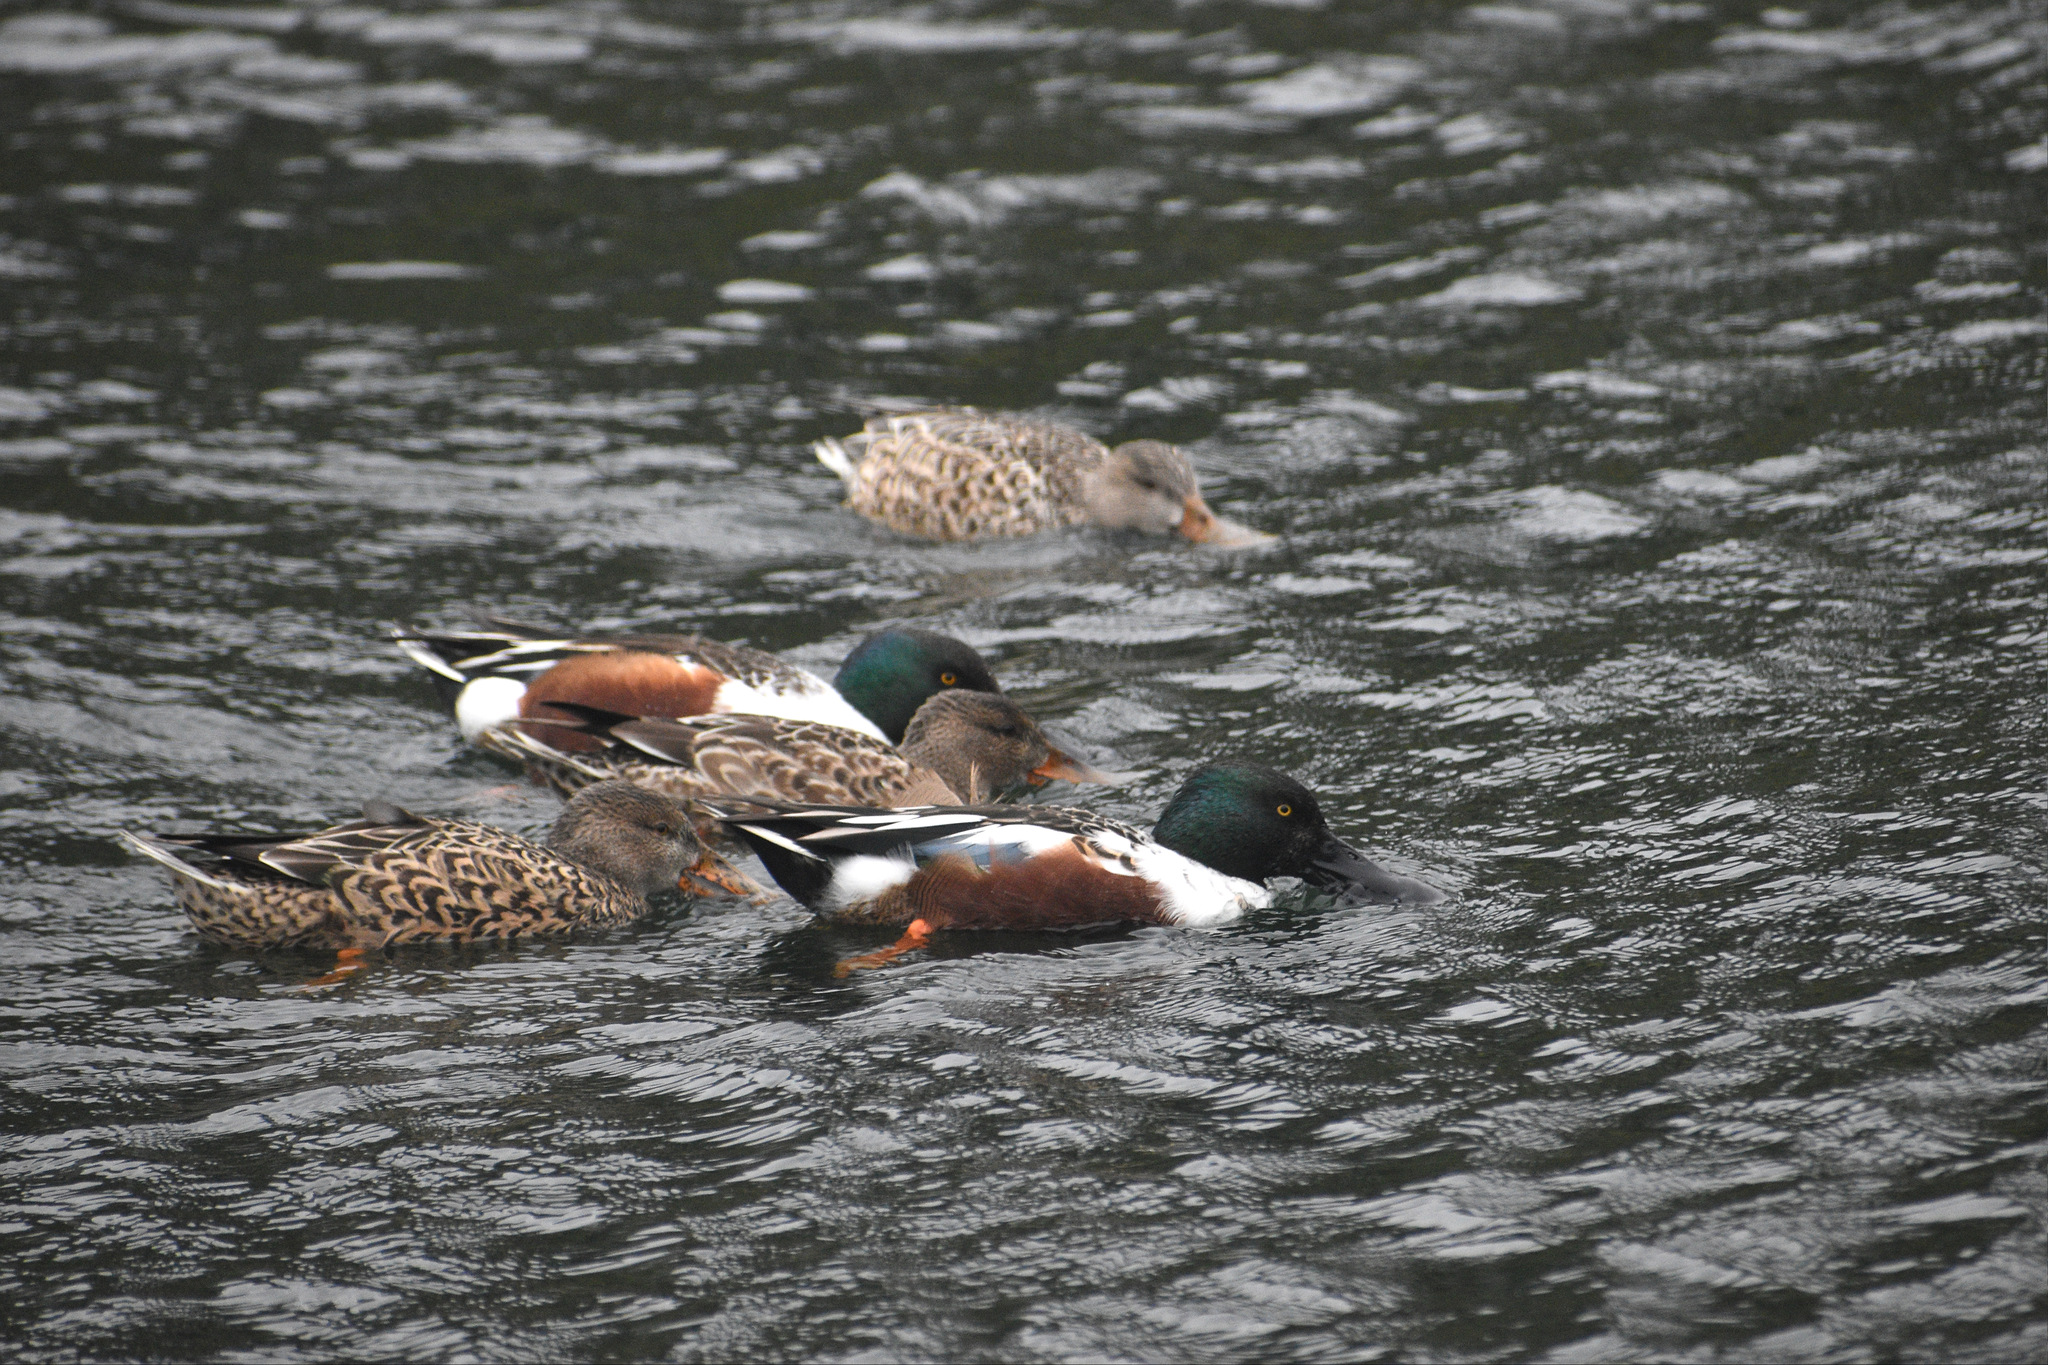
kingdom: Animalia
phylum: Chordata
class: Aves
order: Anseriformes
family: Anatidae
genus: Spatula
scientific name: Spatula clypeata
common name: Northern shoveler
